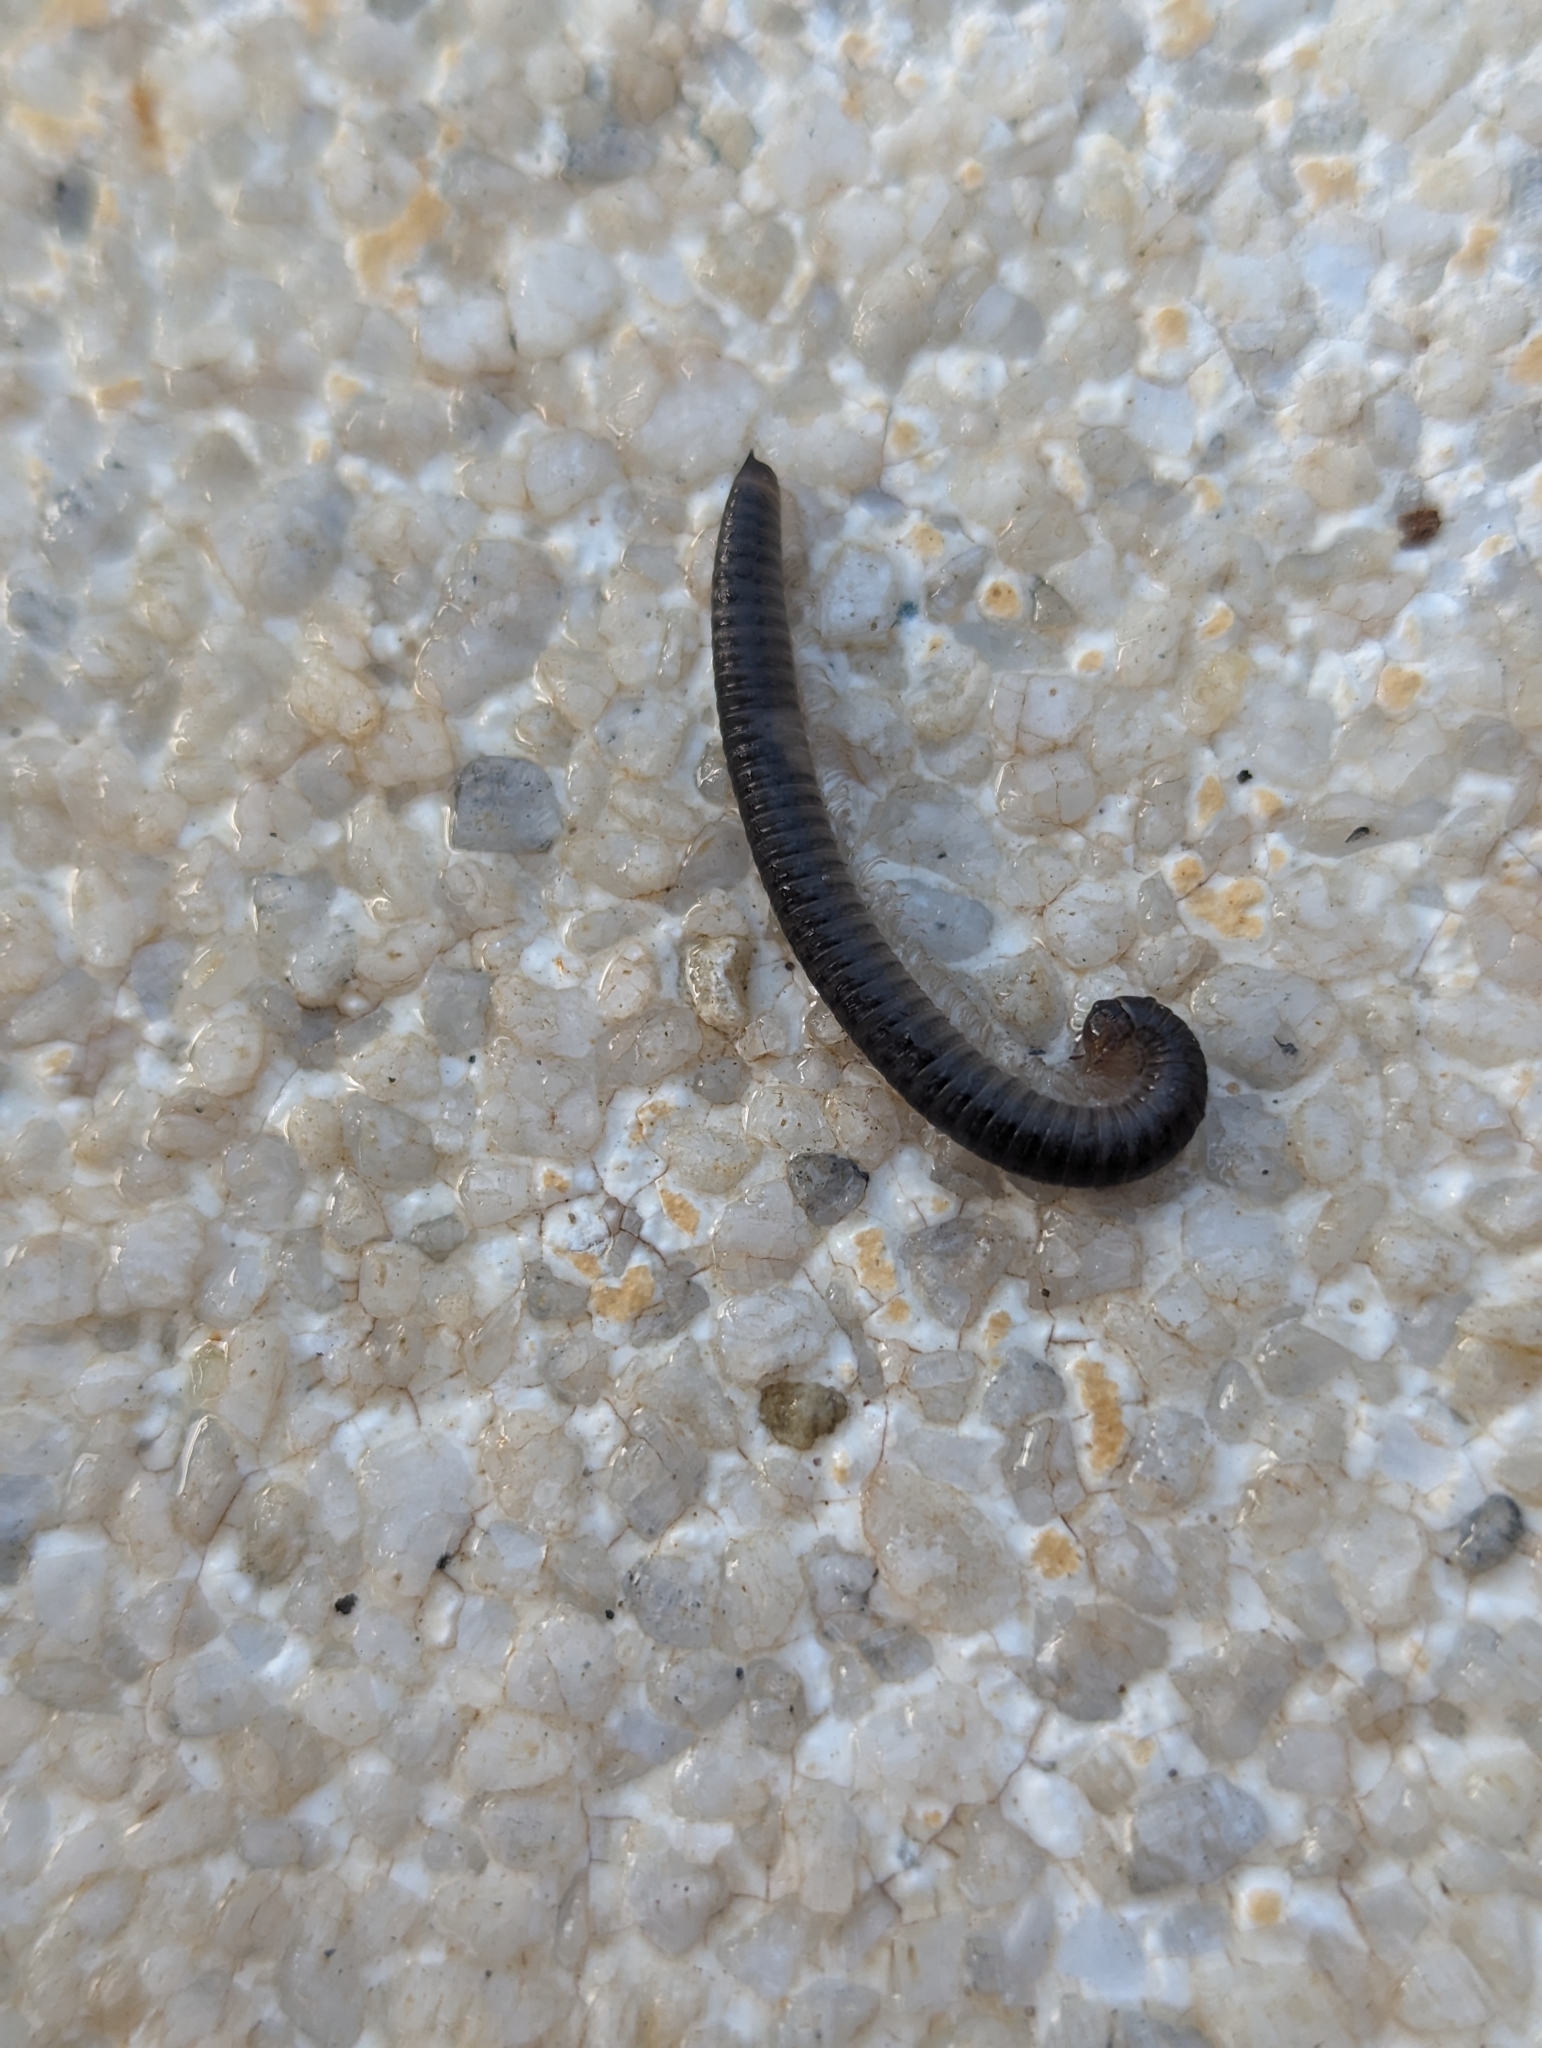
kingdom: Animalia
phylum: Arthropoda
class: Diplopoda
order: Julida
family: Julidae
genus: Ommatoiulus
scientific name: Ommatoiulus moreleti
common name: Portuguese millipede
